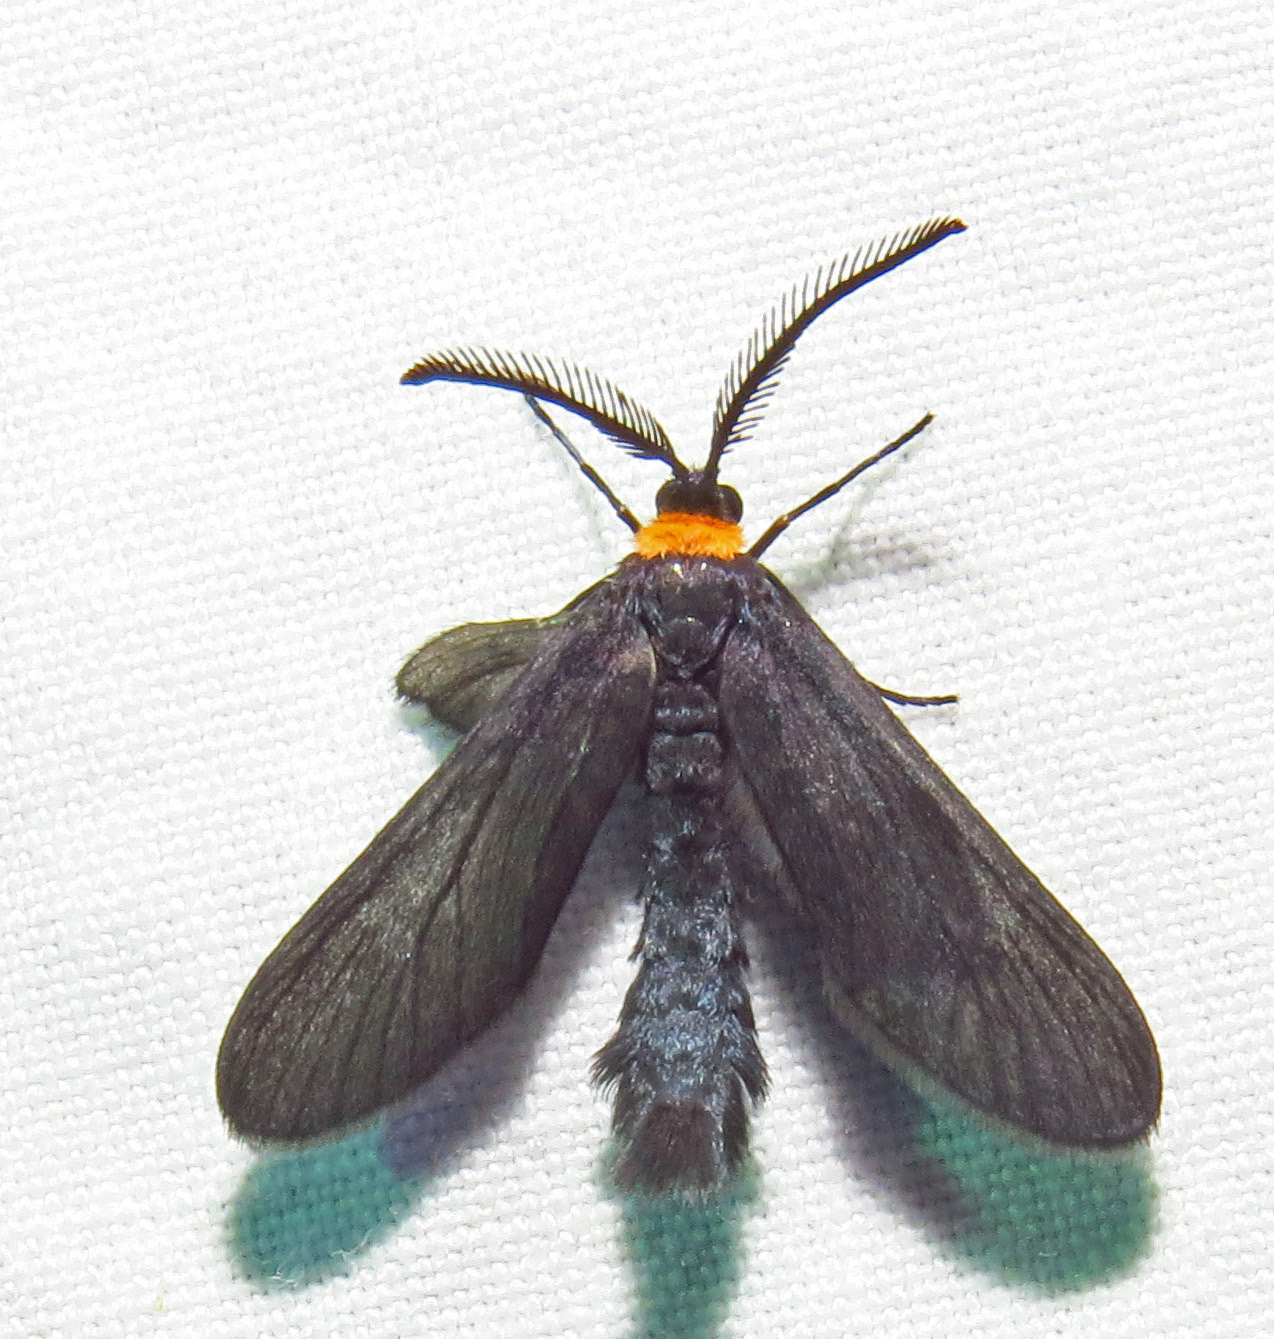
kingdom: Animalia
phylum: Arthropoda
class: Insecta
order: Lepidoptera
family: Zygaenidae
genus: Harrisina
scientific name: Harrisina americana
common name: Grapeleaf skeletonizer moth
